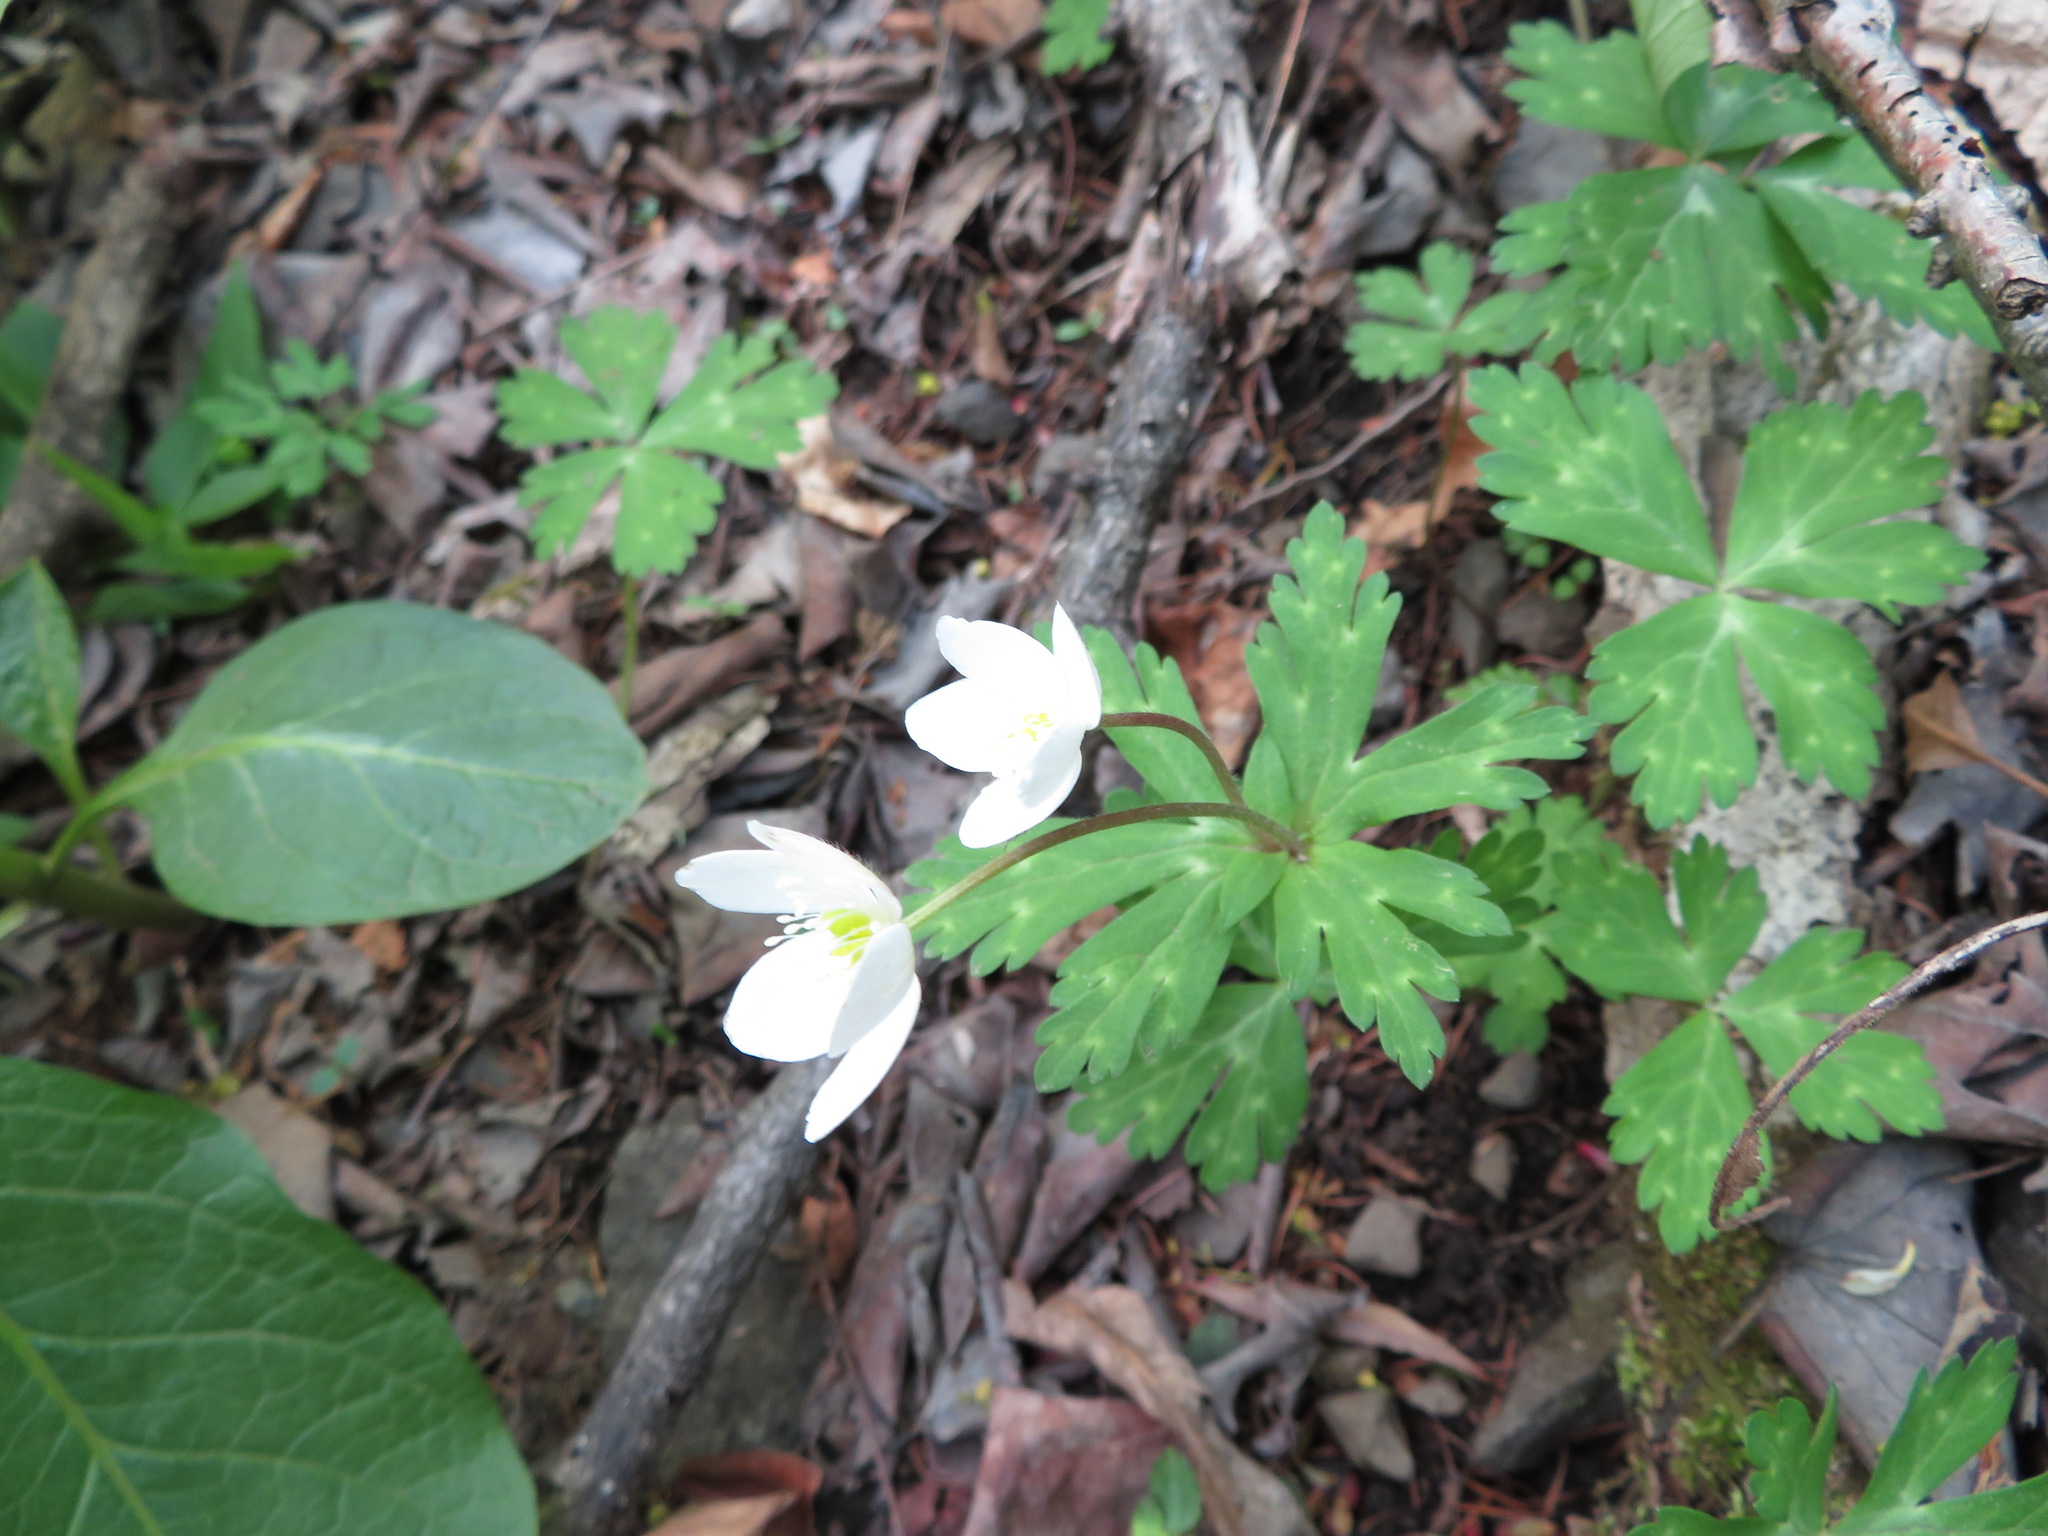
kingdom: Plantae
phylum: Tracheophyta
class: Magnoliopsida
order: Ranunculales
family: Ranunculaceae
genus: Anemonastrum
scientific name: Anemonastrum flaccidum
